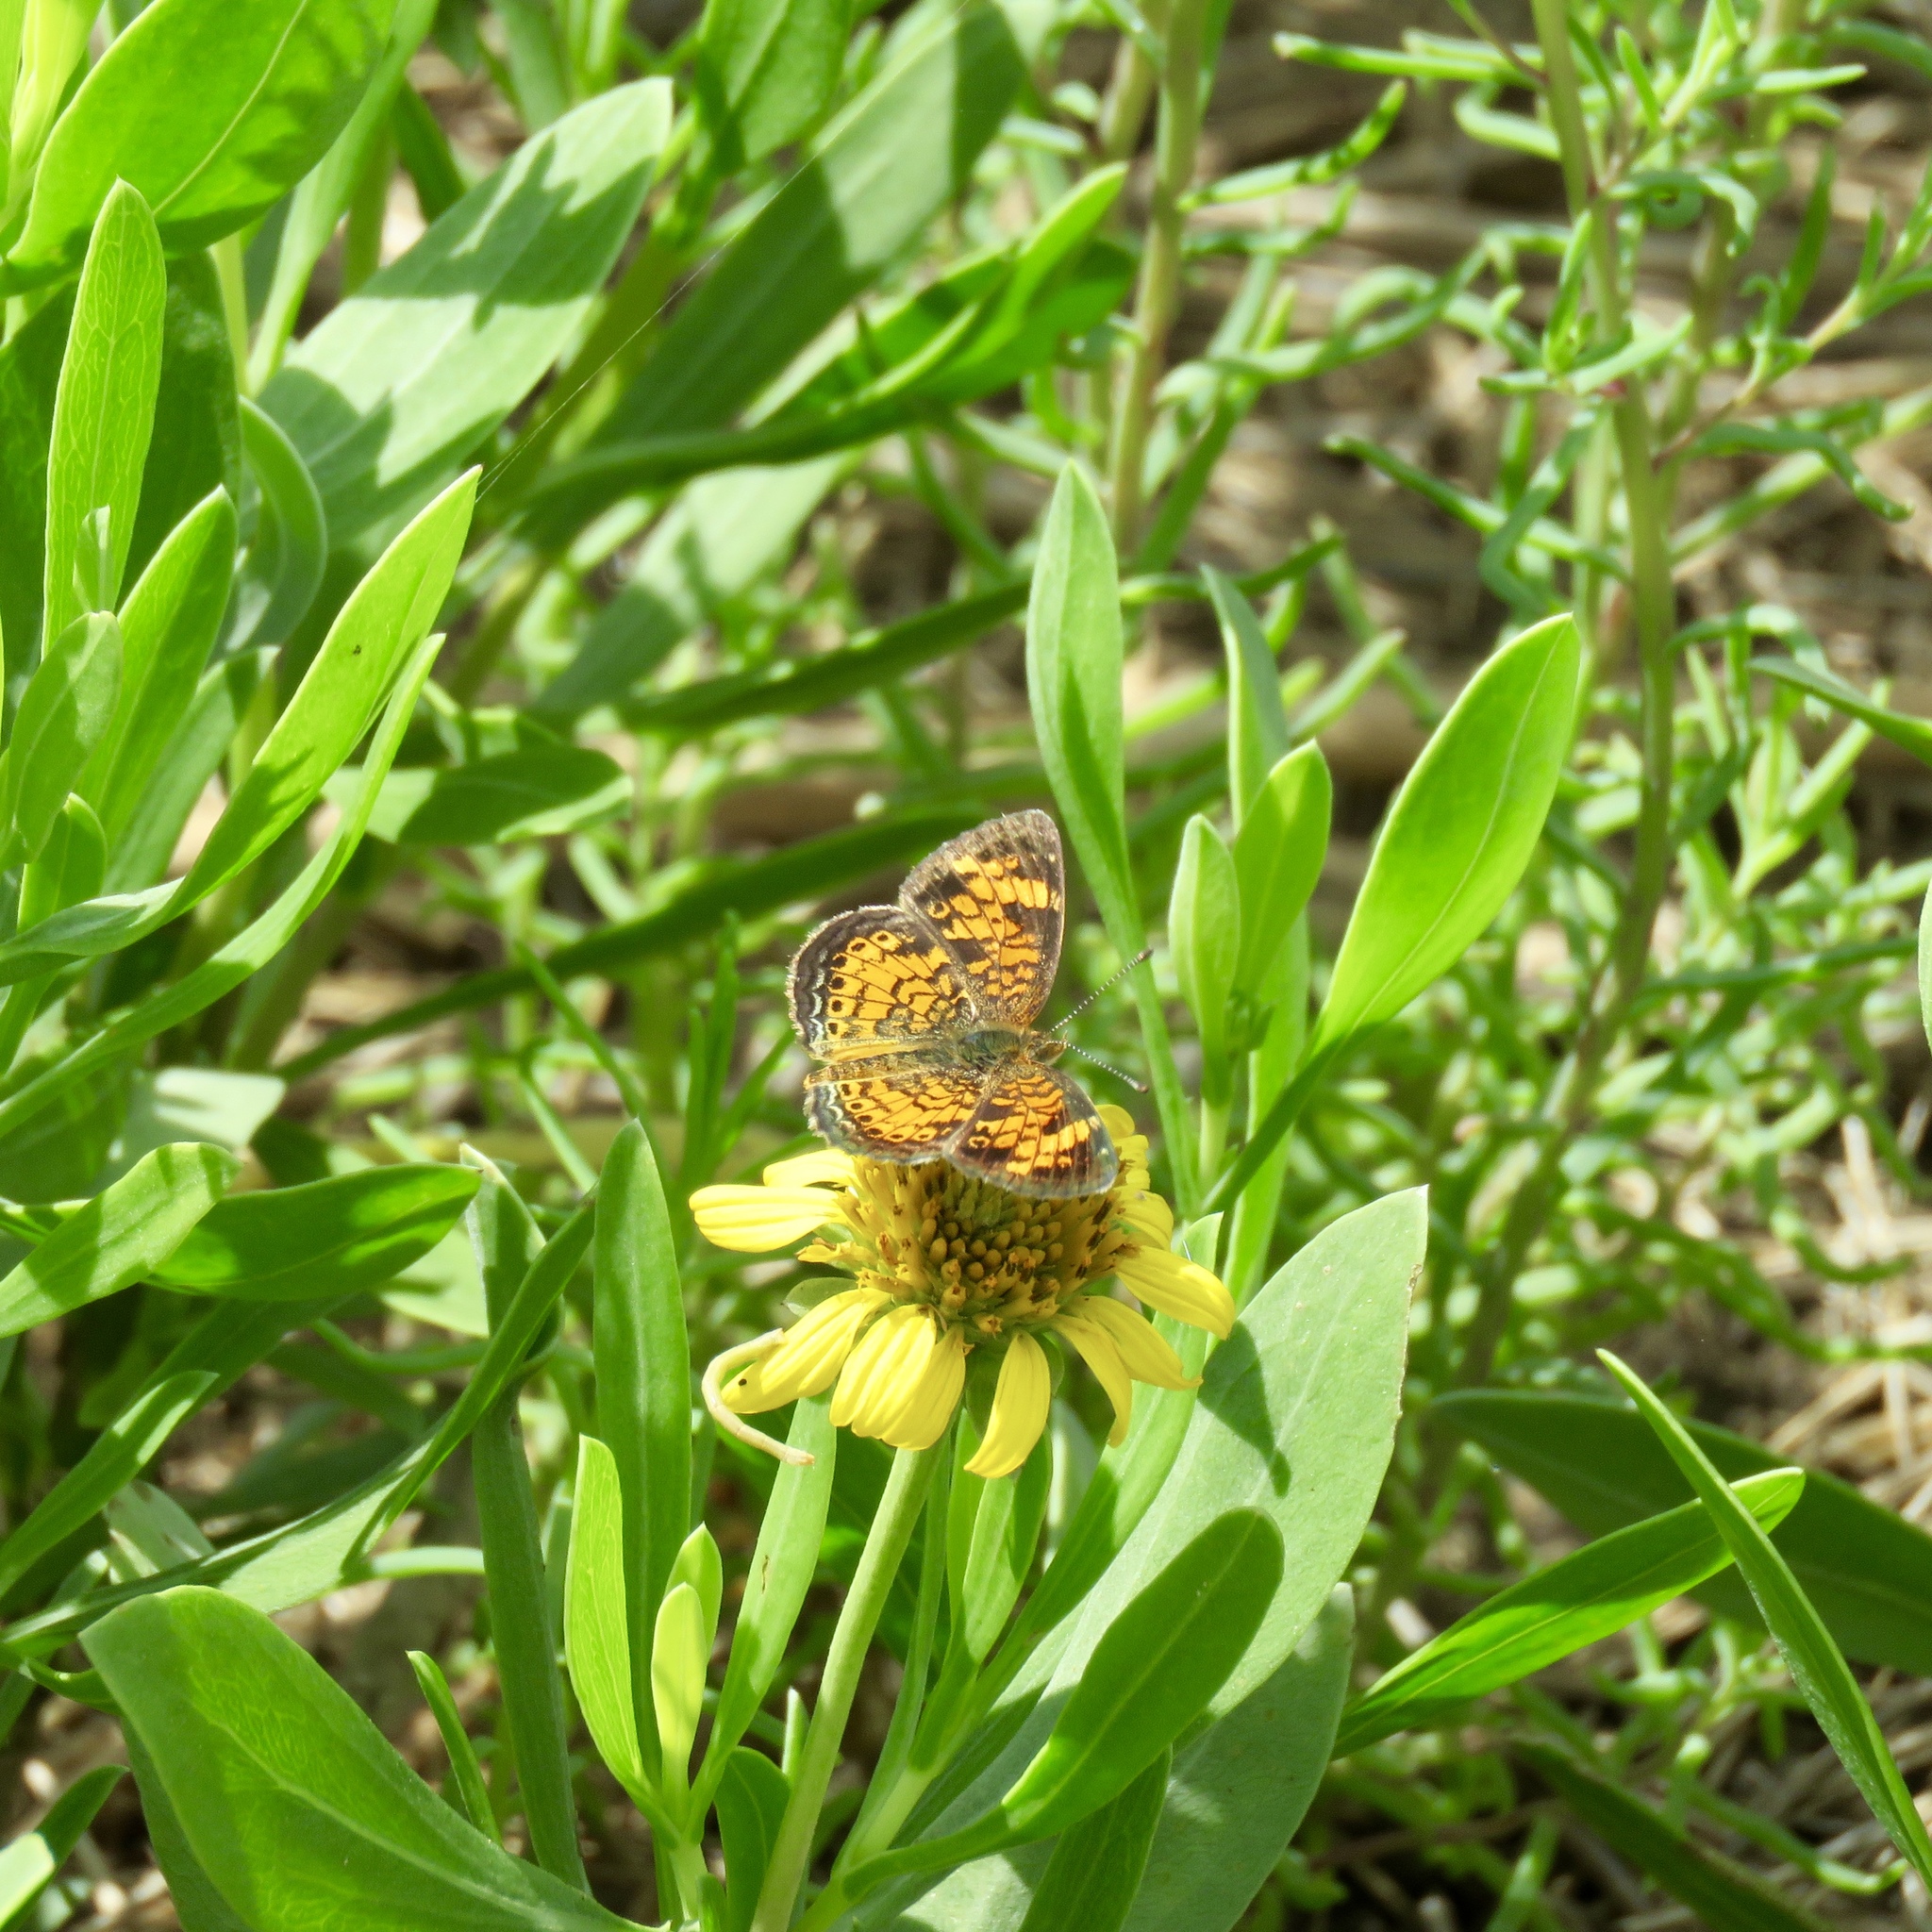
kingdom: Animalia
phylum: Arthropoda
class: Insecta
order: Lepidoptera
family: Nymphalidae
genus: Phyciodes
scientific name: Phyciodes tharos
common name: Pearl crescent
